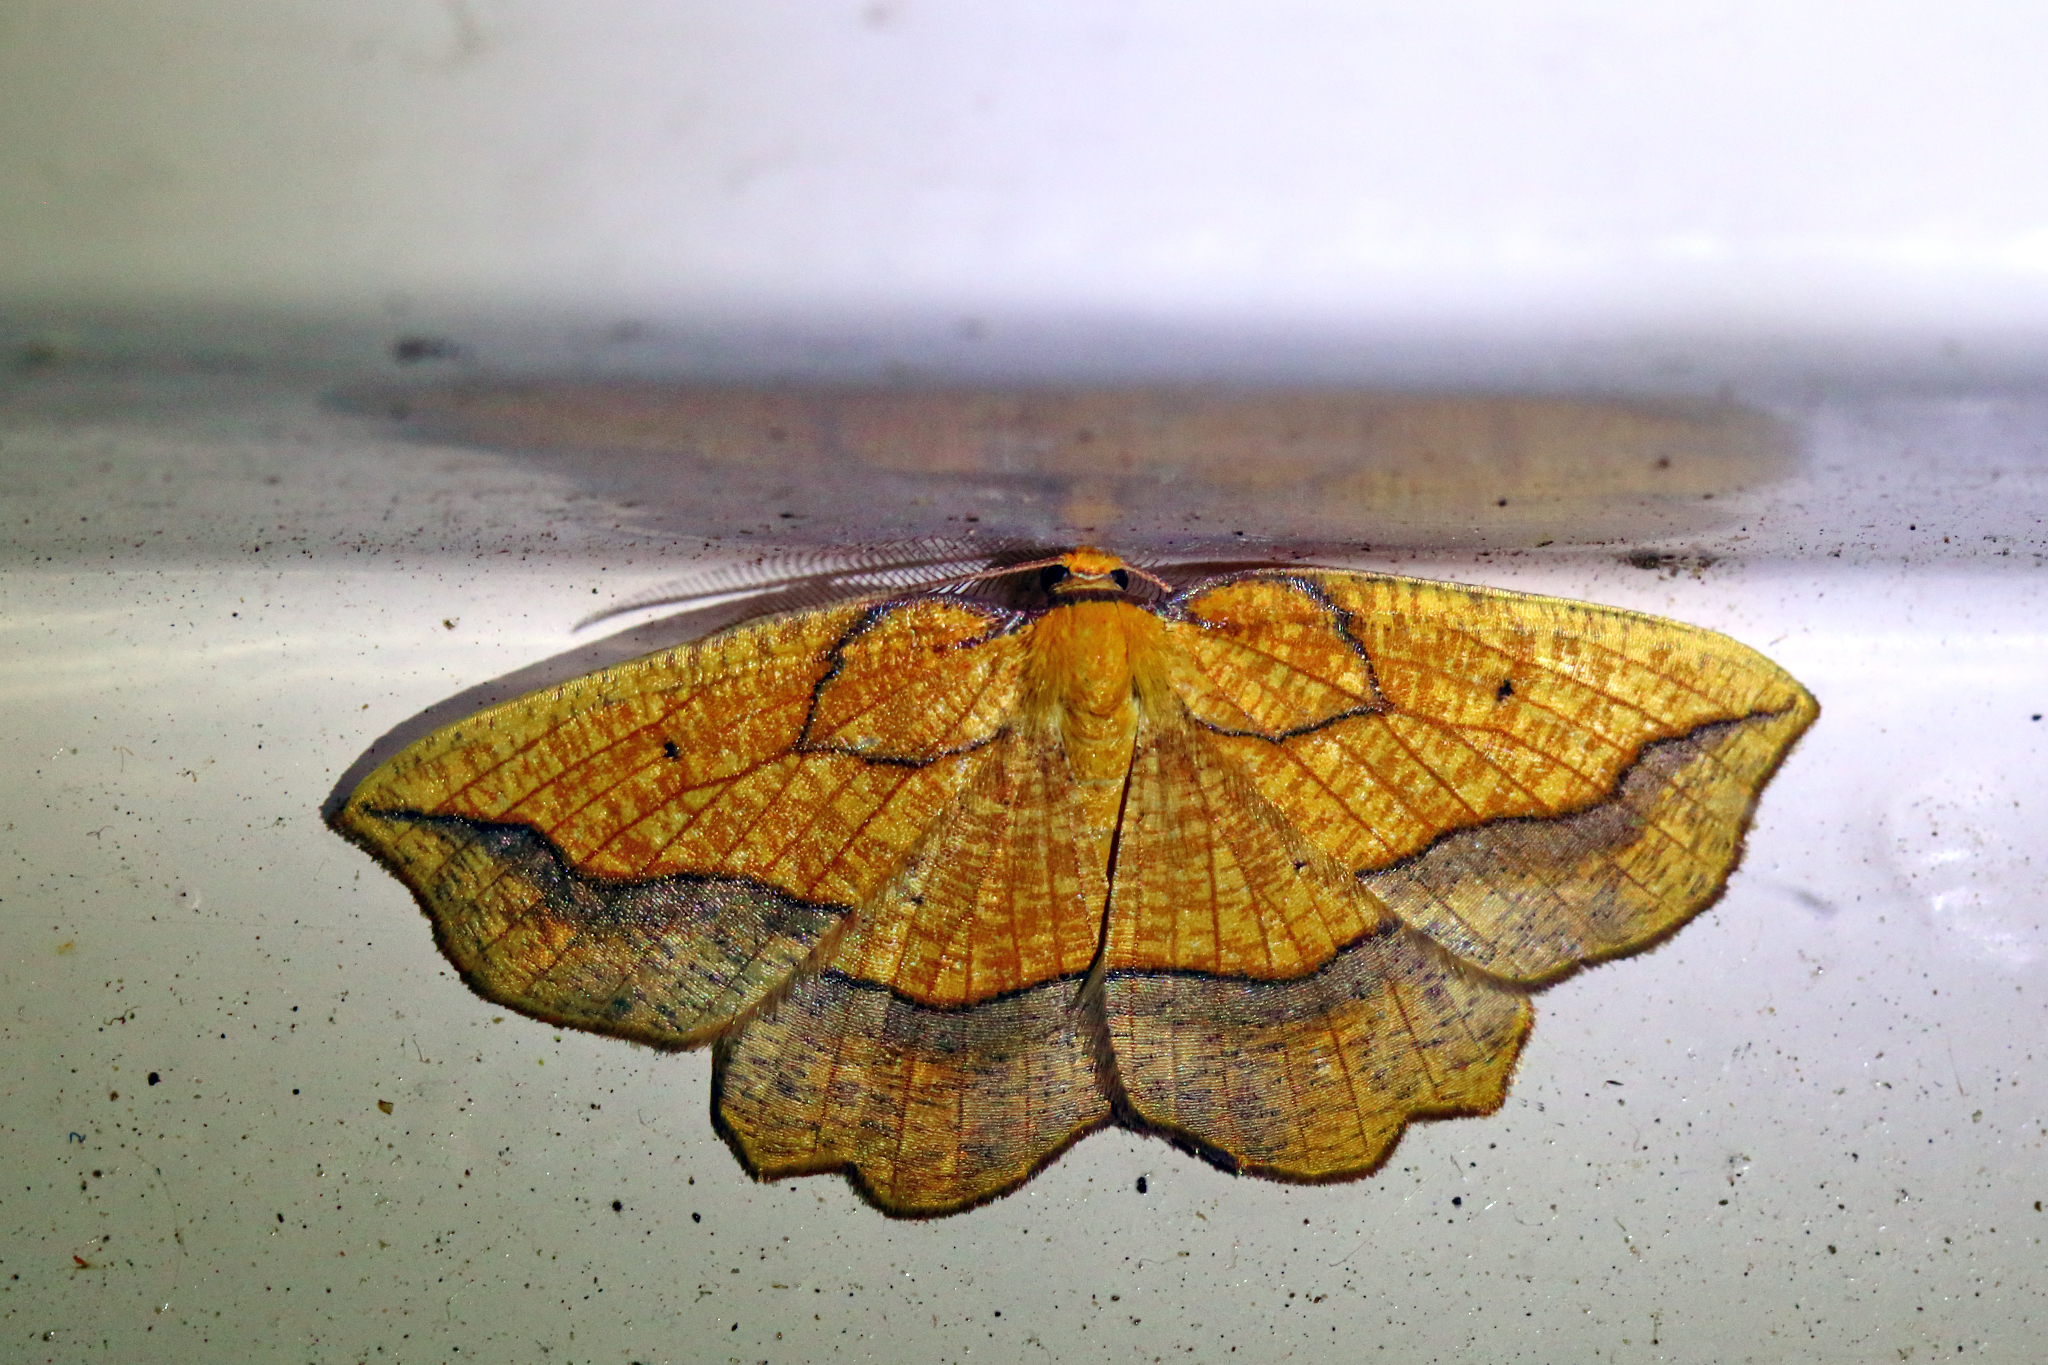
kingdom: Animalia
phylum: Arthropoda
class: Insecta
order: Lepidoptera
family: Geometridae
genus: Epione
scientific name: Epione repandaria
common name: Bordered beauty
